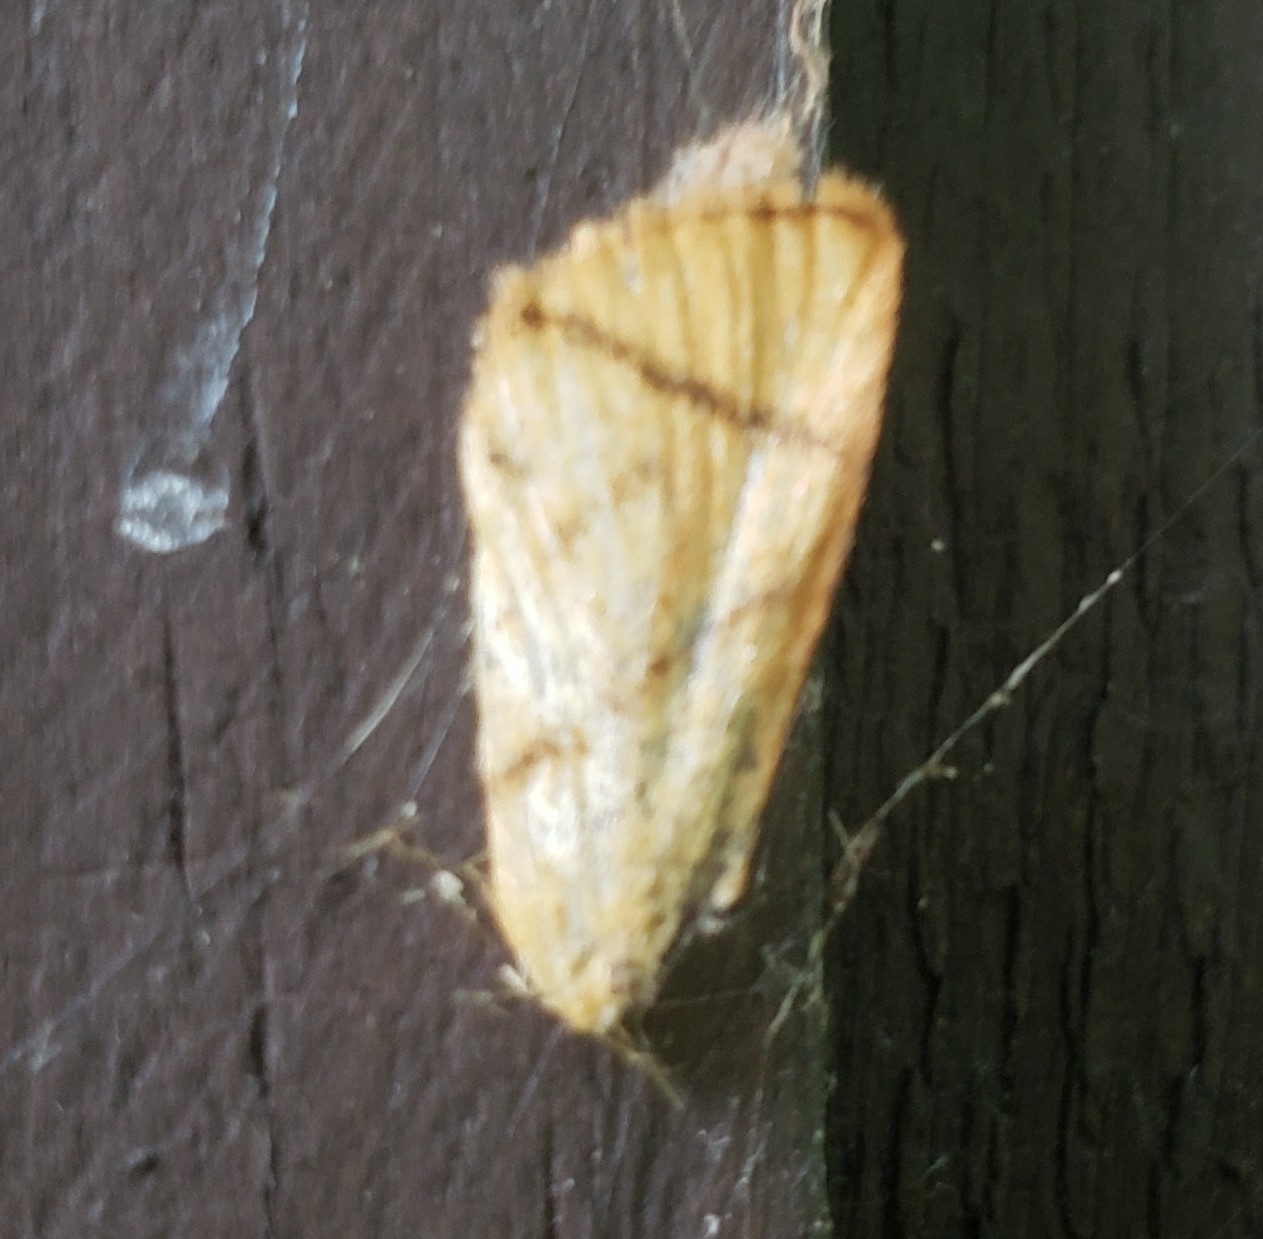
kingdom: Animalia
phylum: Arthropoda
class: Insecta
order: Lepidoptera
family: Limacodidae
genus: Apoda
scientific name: Apoda y-inversa
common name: Yellow-collared slug moth
